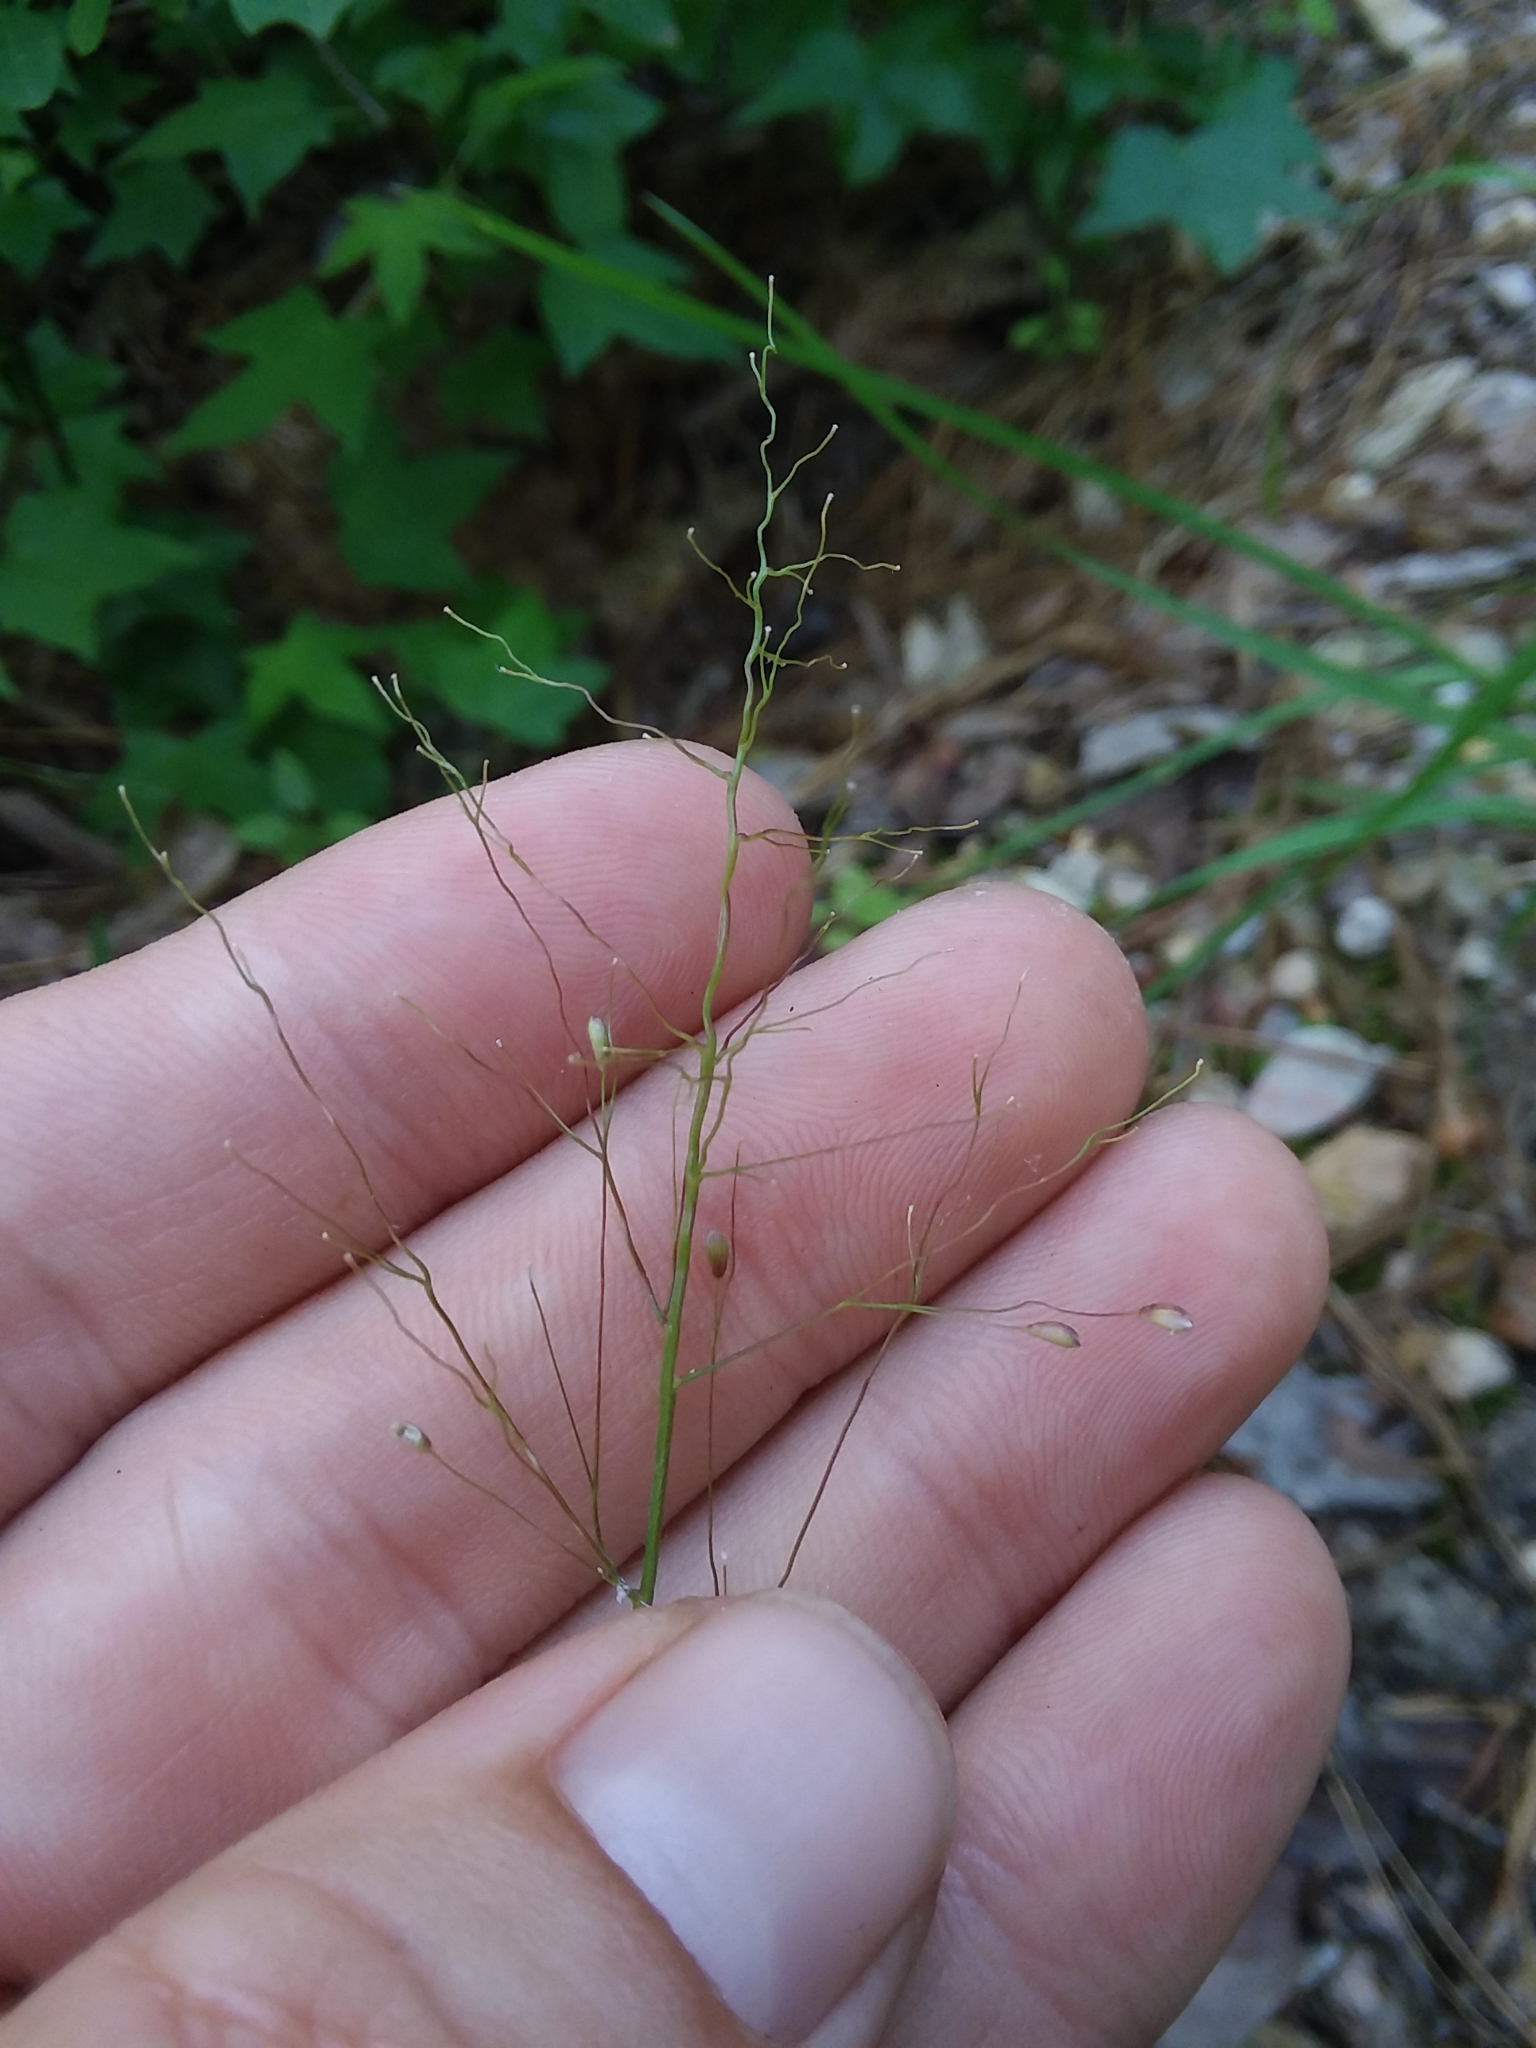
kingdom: Plantae
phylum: Tracheophyta
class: Liliopsida
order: Poales
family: Poaceae
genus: Dichanthelium
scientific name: Dichanthelium villosissimum
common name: White-haired panicgrass
